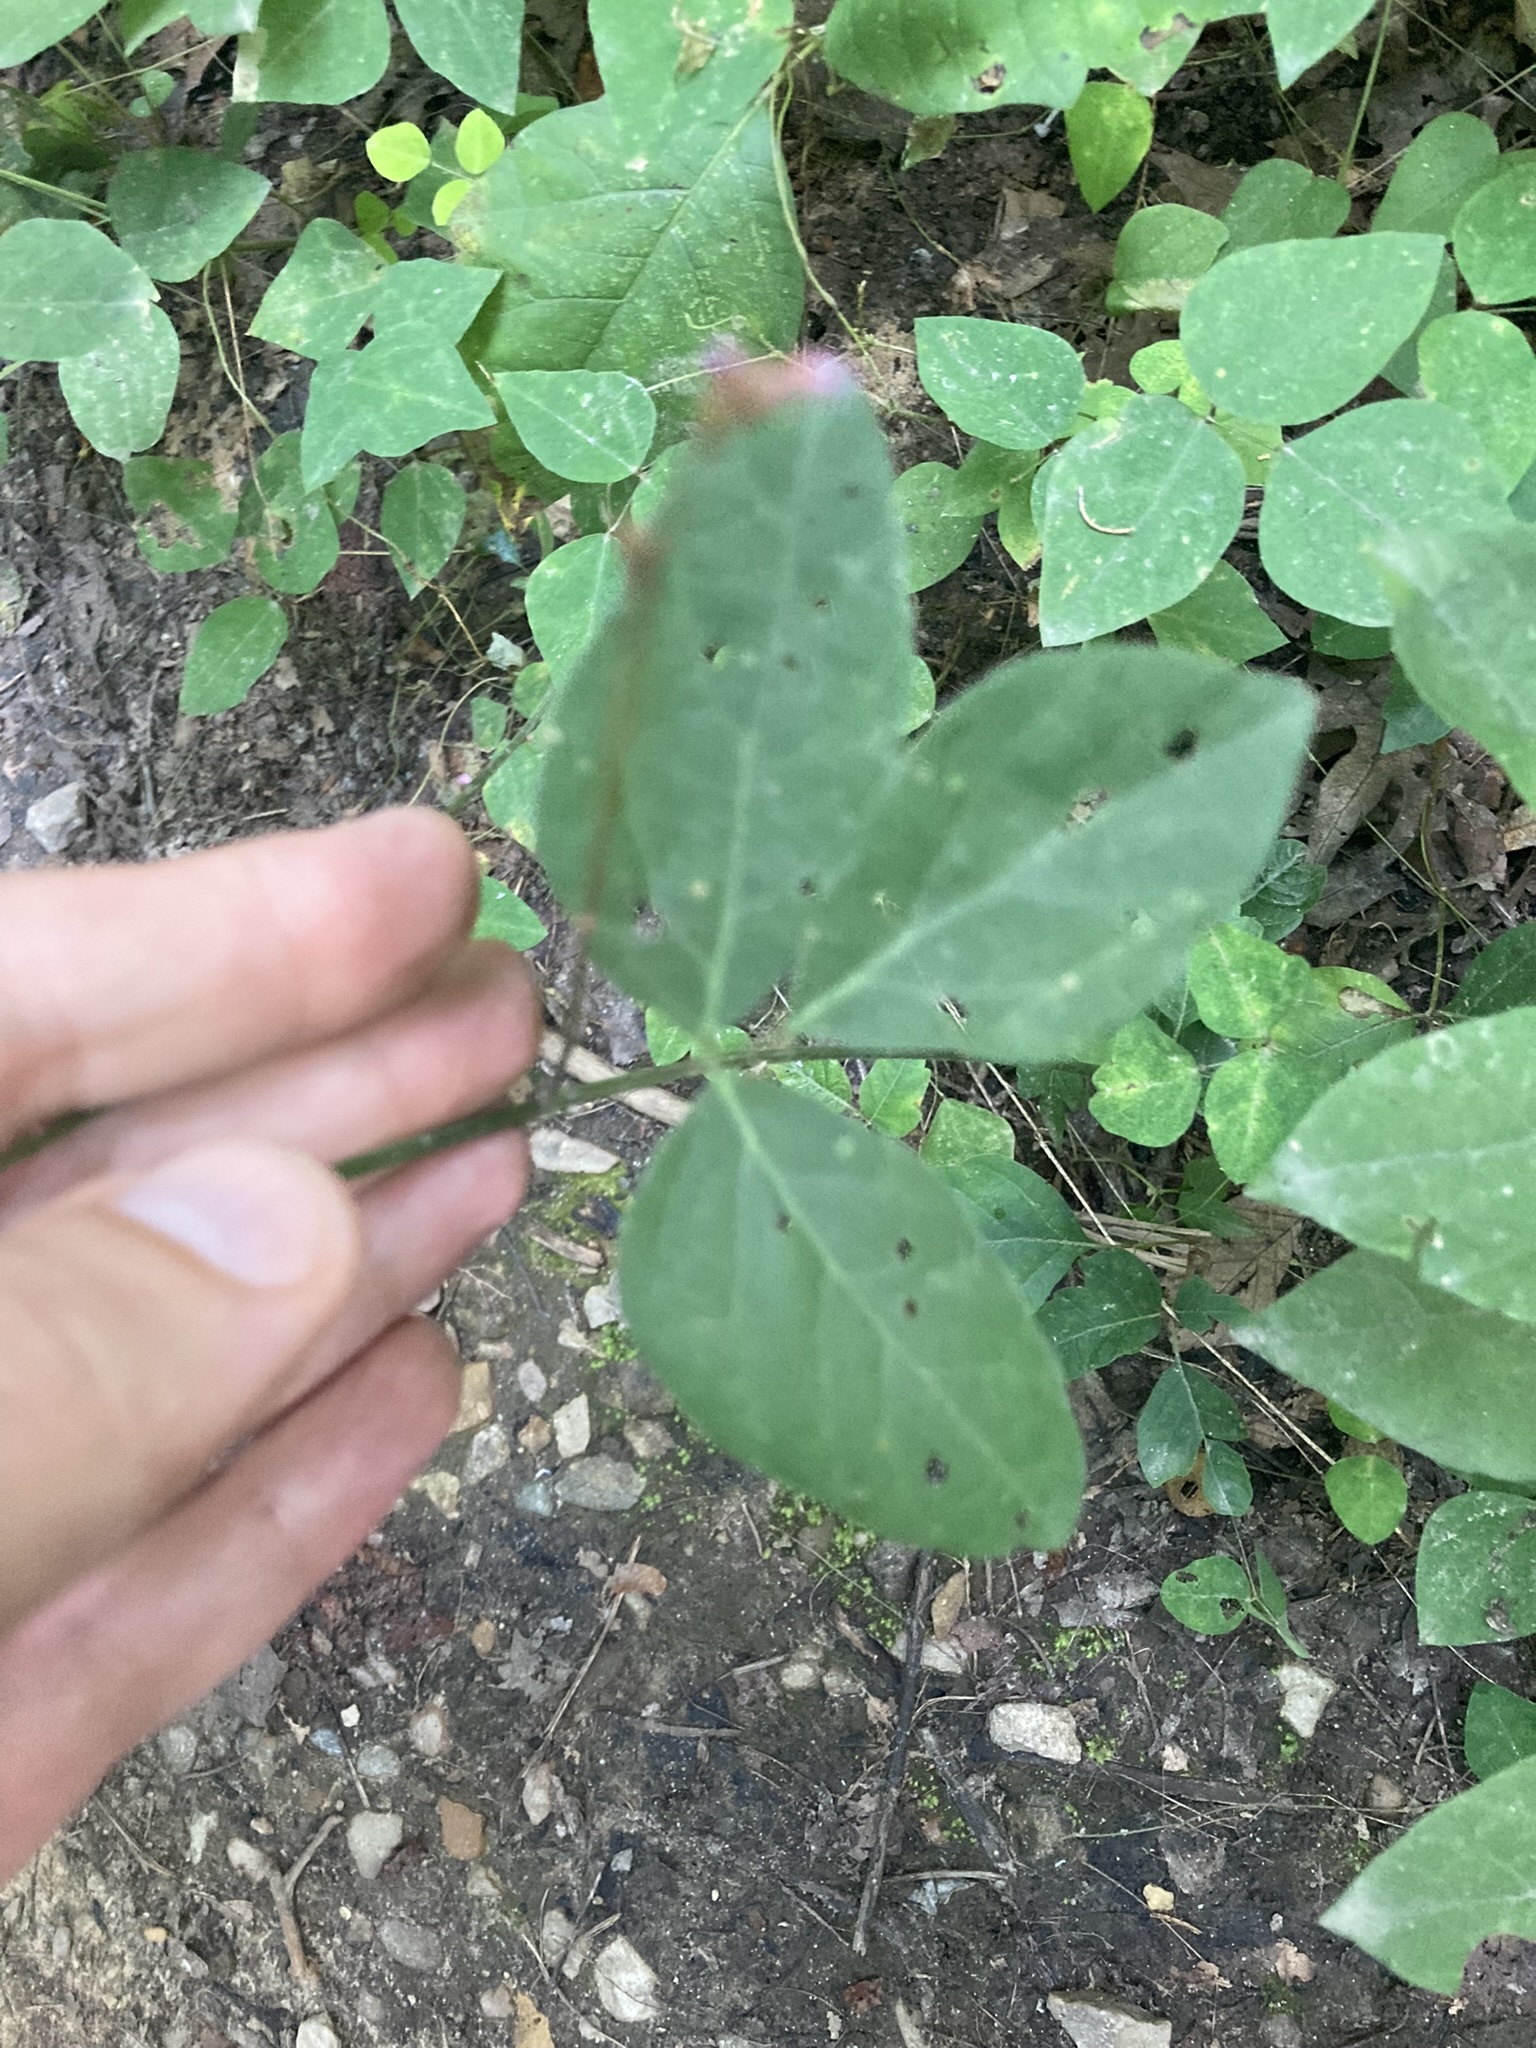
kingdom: Plantae
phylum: Tracheophyta
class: Magnoliopsida
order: Fabales
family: Fabaceae
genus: Hylodesmum
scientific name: Hylodesmum nudiflorum
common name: Bare-stemmed tick-trefoil
